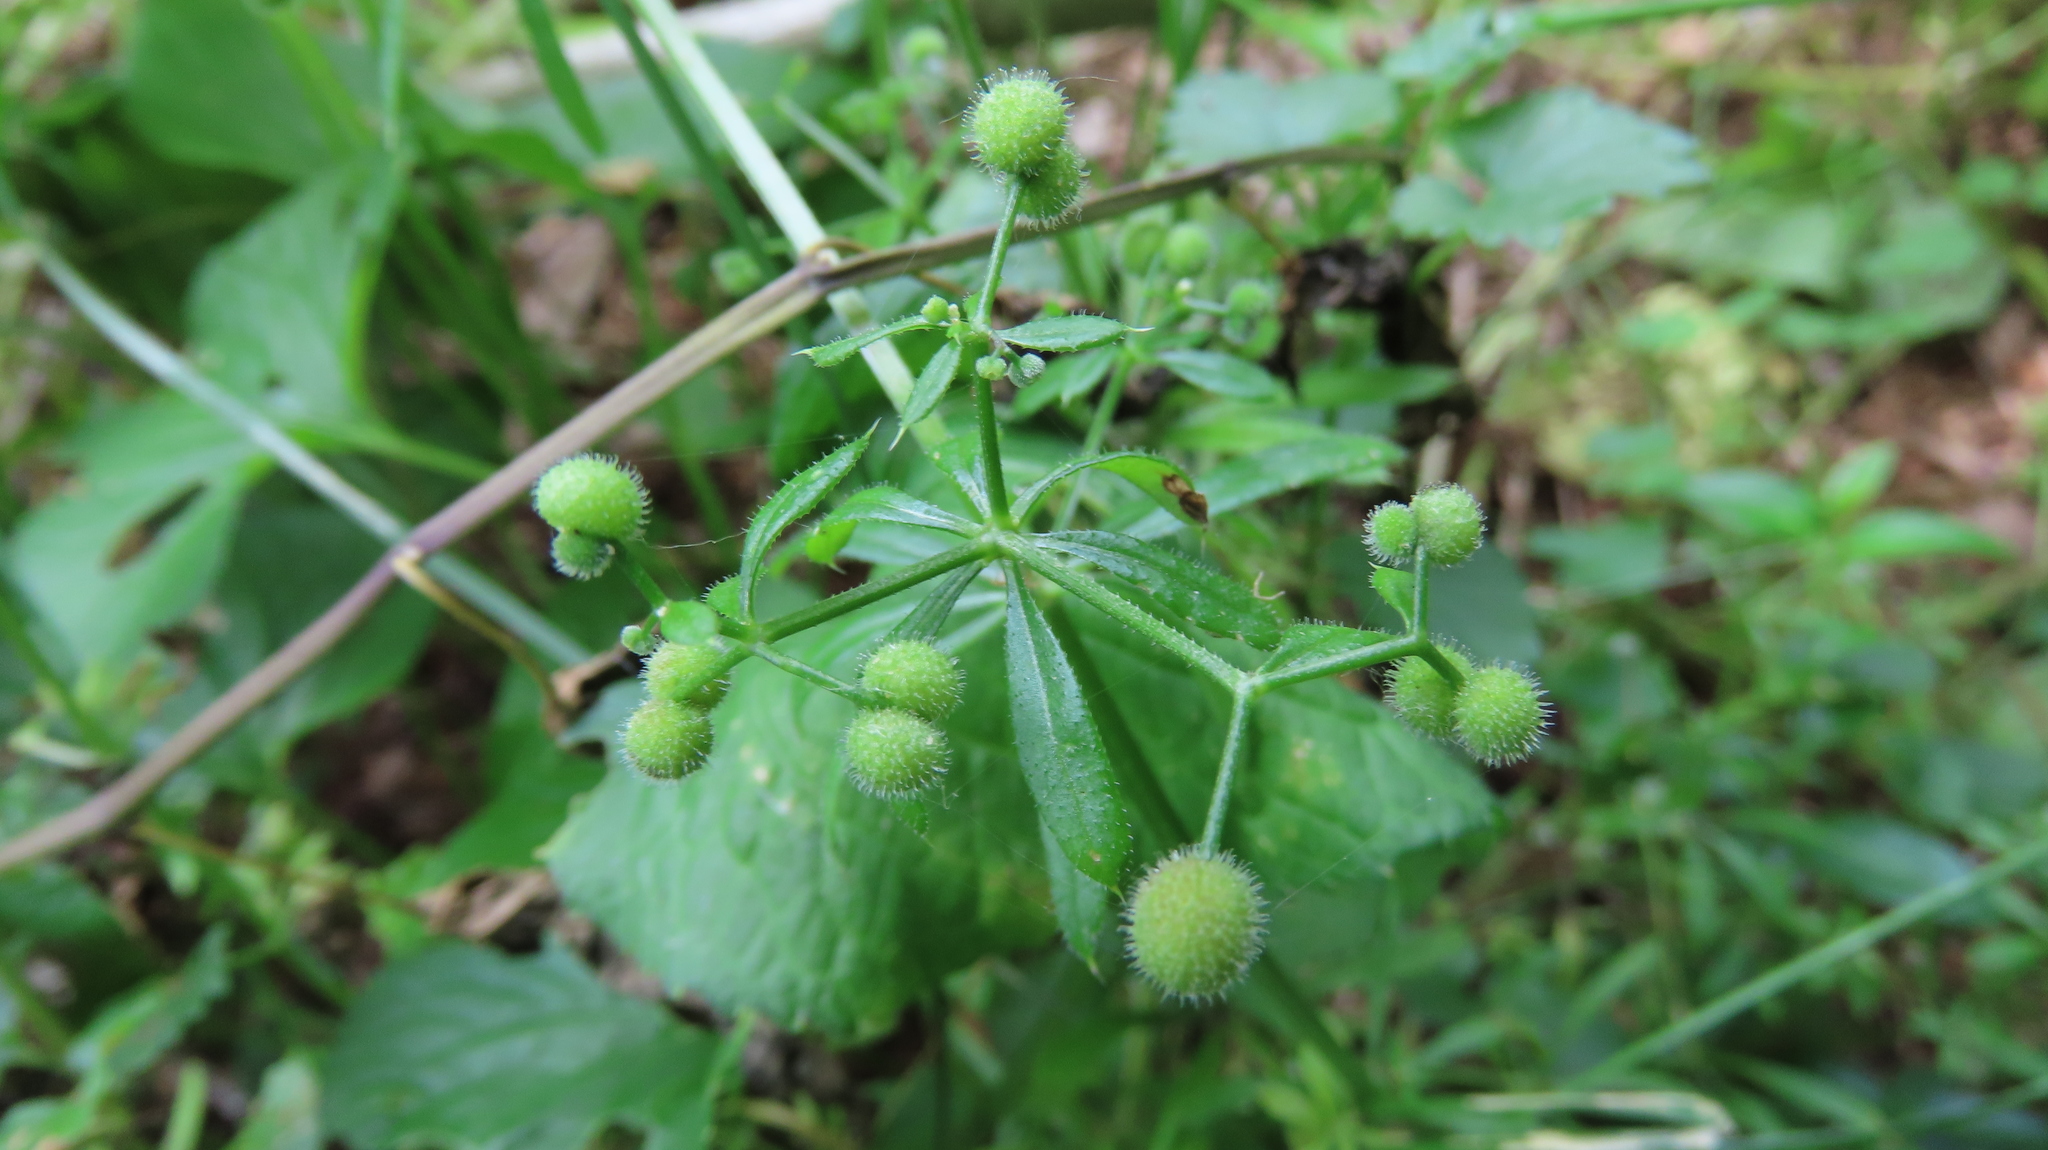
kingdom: Plantae
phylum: Tracheophyta
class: Magnoliopsida
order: Gentianales
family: Rubiaceae
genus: Galium
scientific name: Galium aparine
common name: Cleavers
